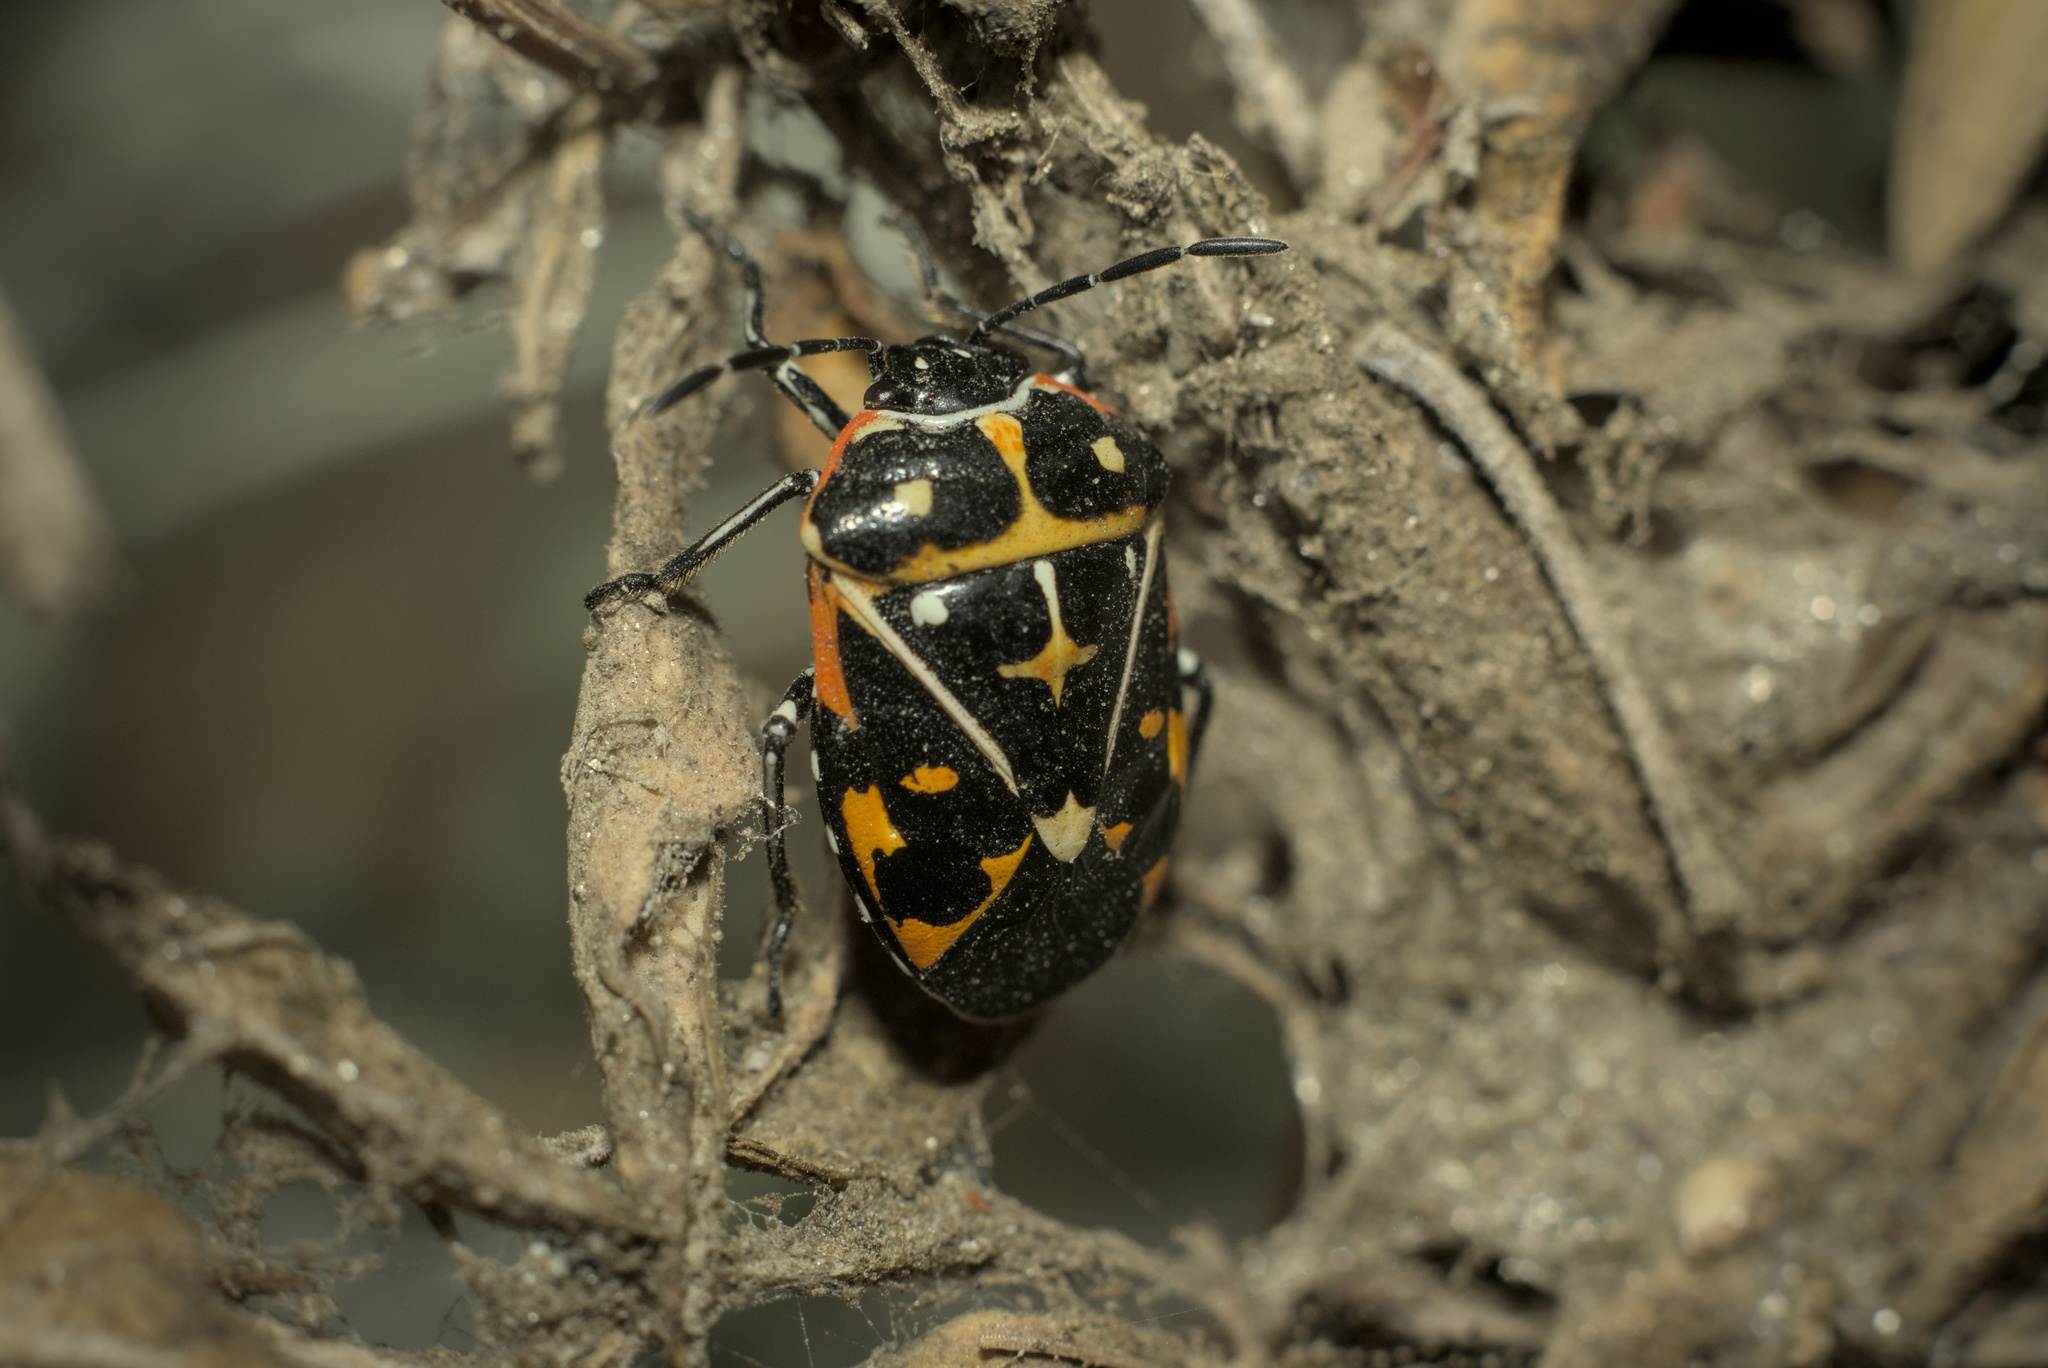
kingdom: Animalia
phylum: Arthropoda
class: Insecta
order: Hemiptera
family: Pentatomidae
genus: Murgantia
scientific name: Murgantia histrionica
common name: Harlequin bug
